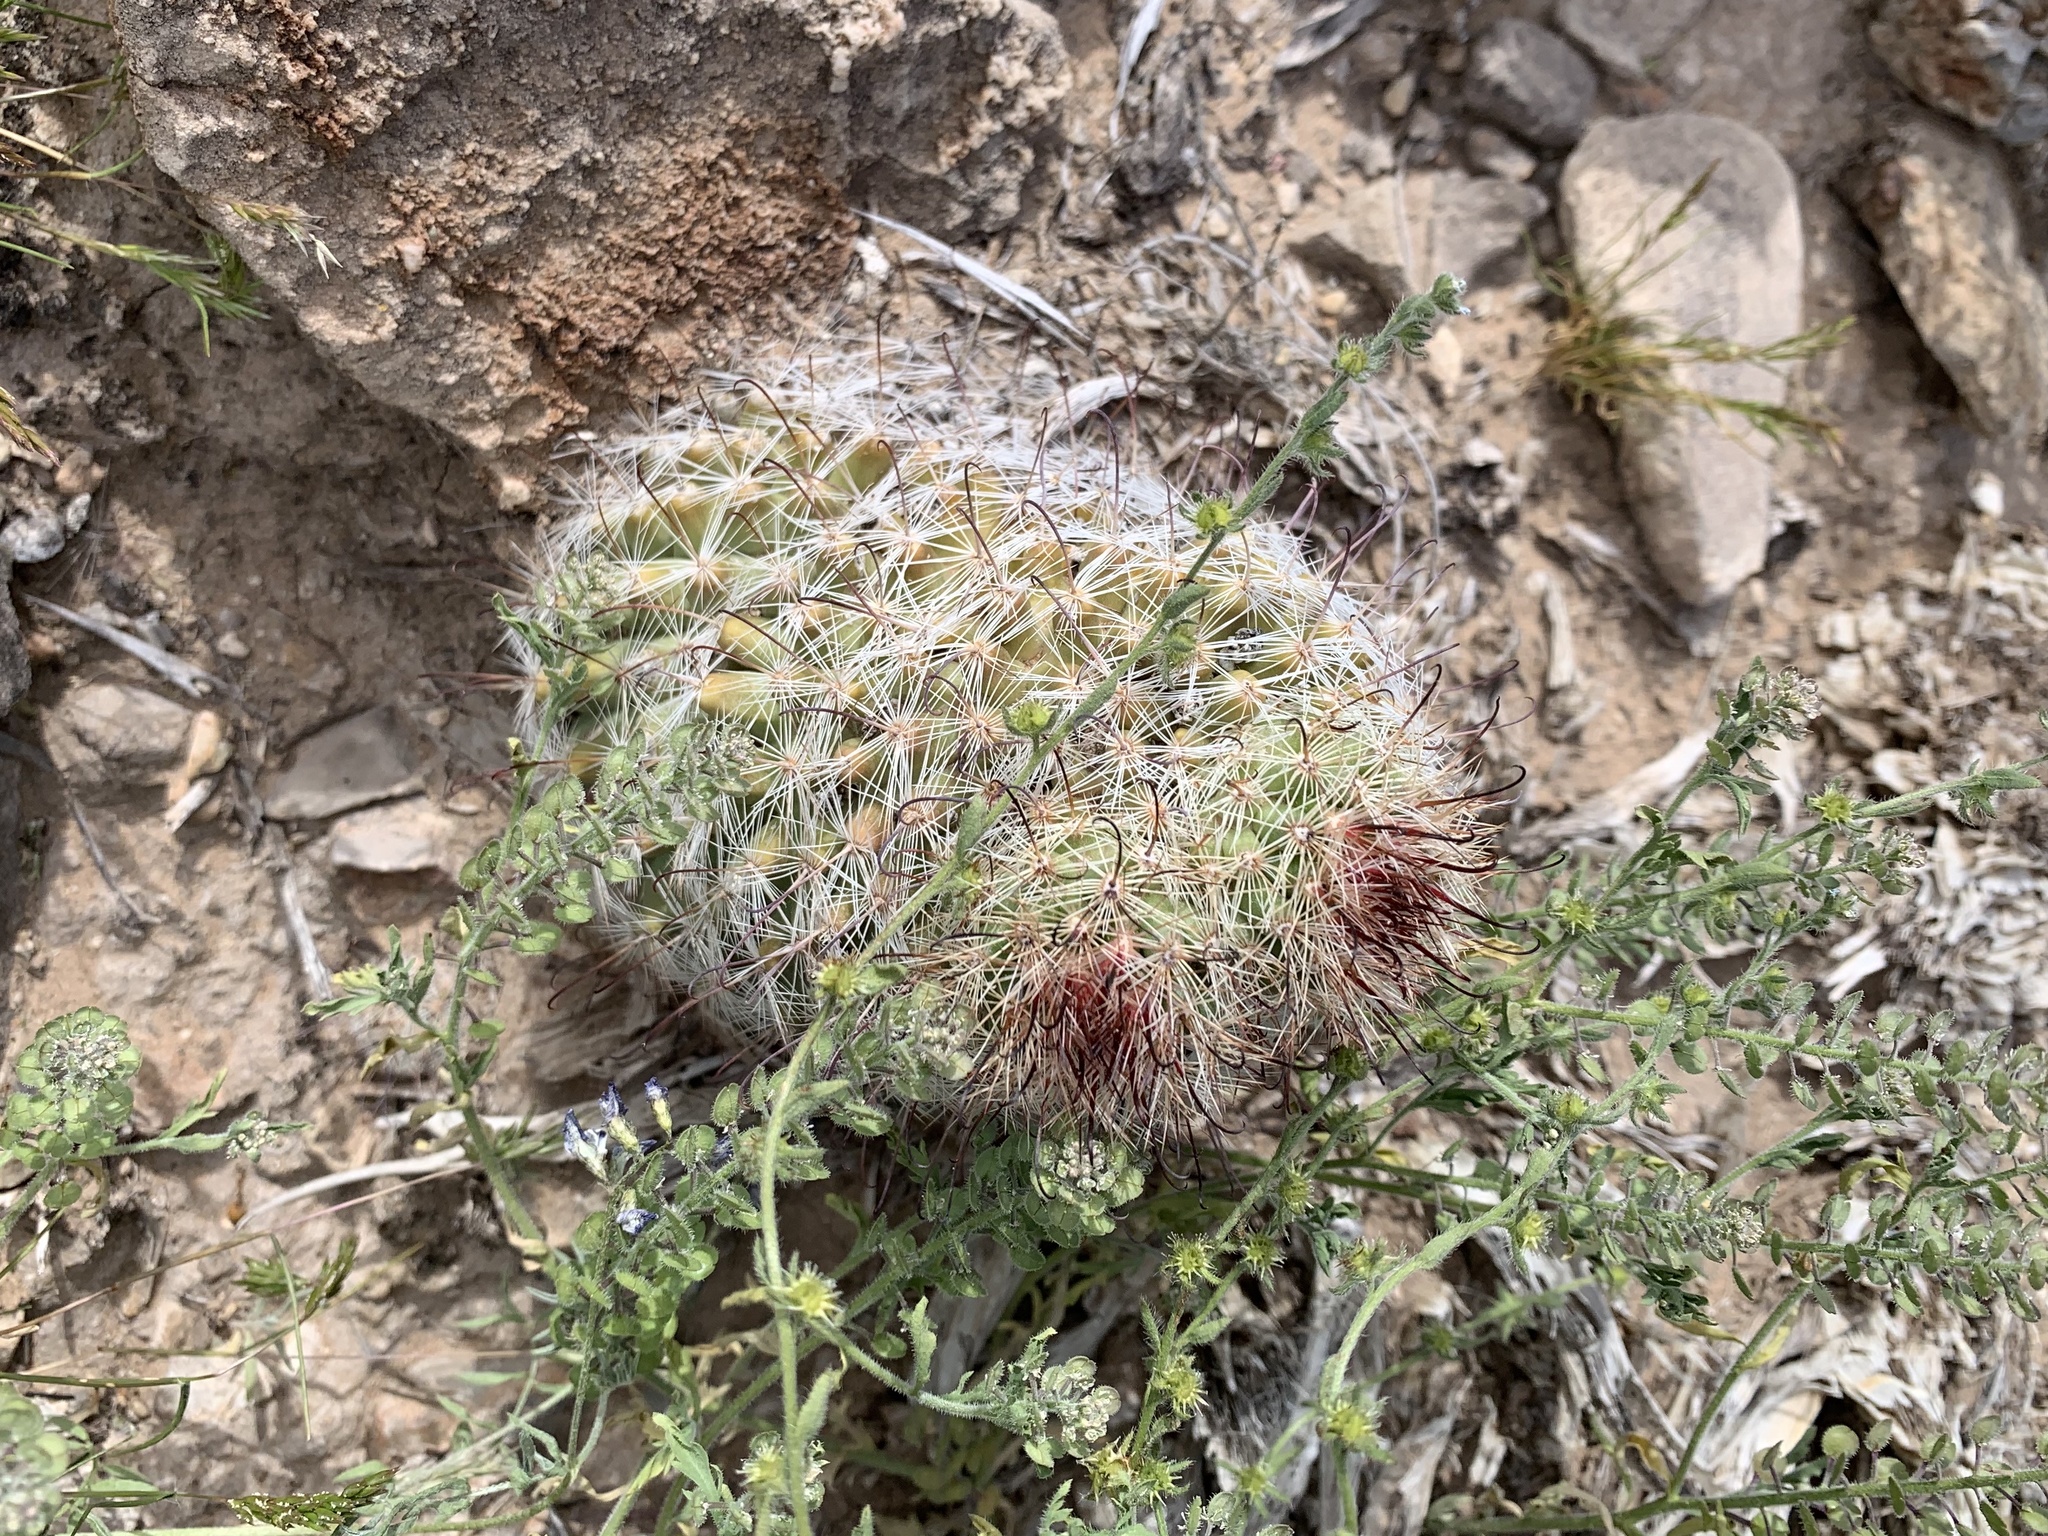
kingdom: Plantae
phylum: Tracheophyta
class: Magnoliopsida
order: Caryophyllales
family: Cactaceae
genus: Cochemiea
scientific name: Cochemiea grahamii
